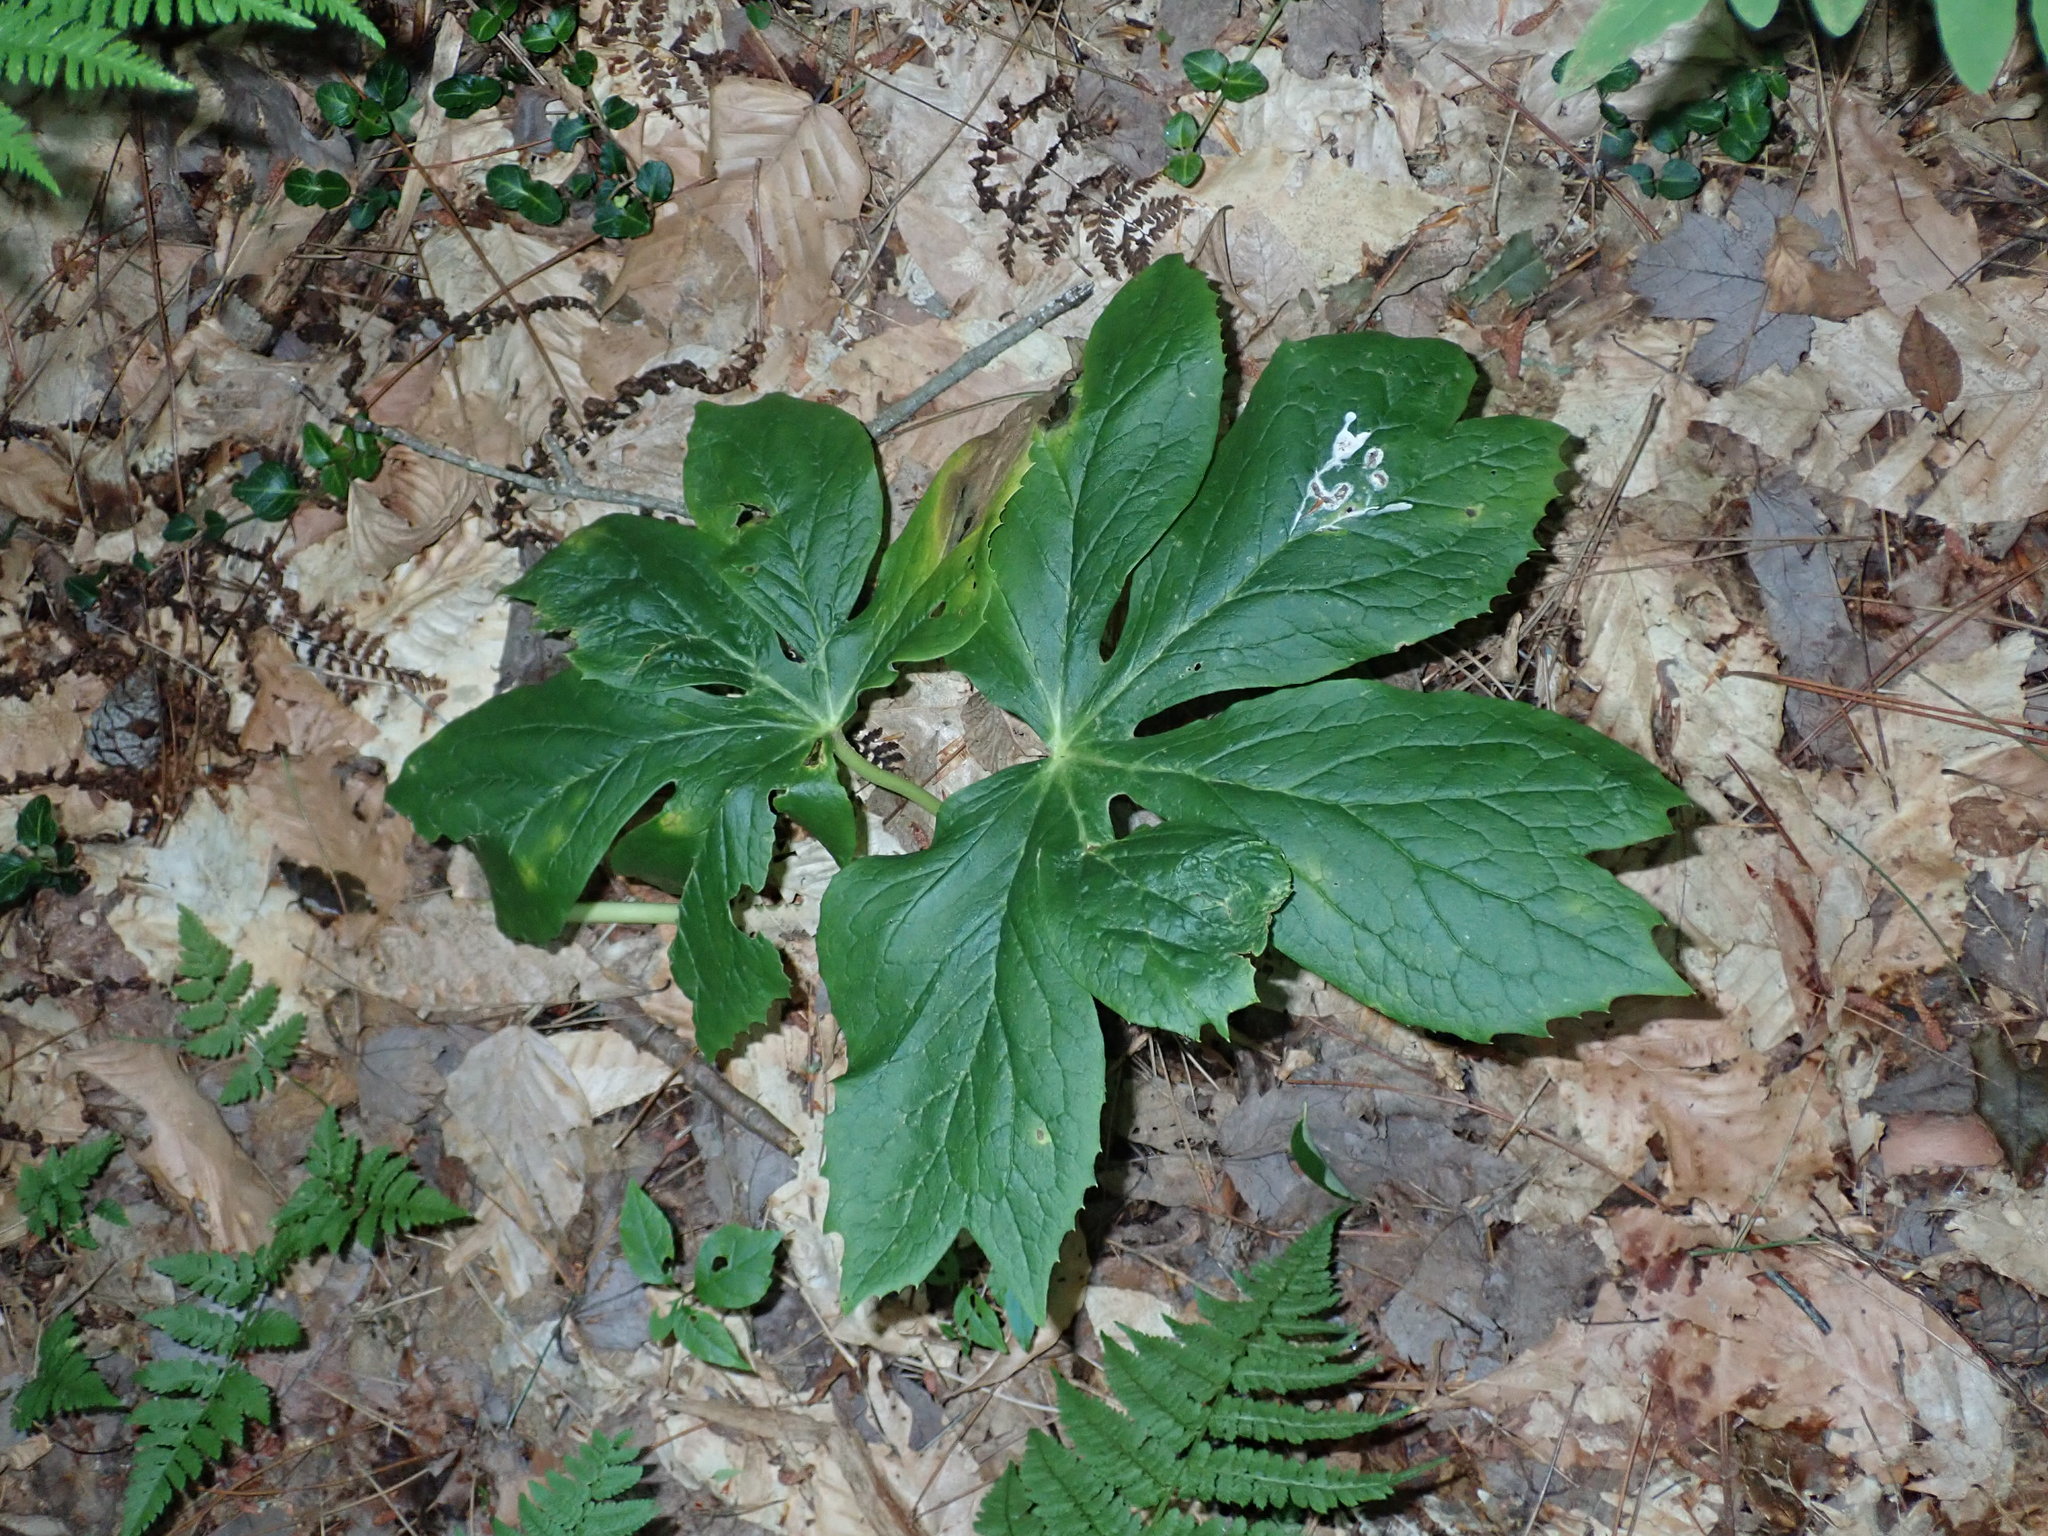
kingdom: Plantae
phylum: Tracheophyta
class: Magnoliopsida
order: Ranunculales
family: Berberidaceae
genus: Podophyllum
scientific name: Podophyllum peltatum
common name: Wild mandrake
